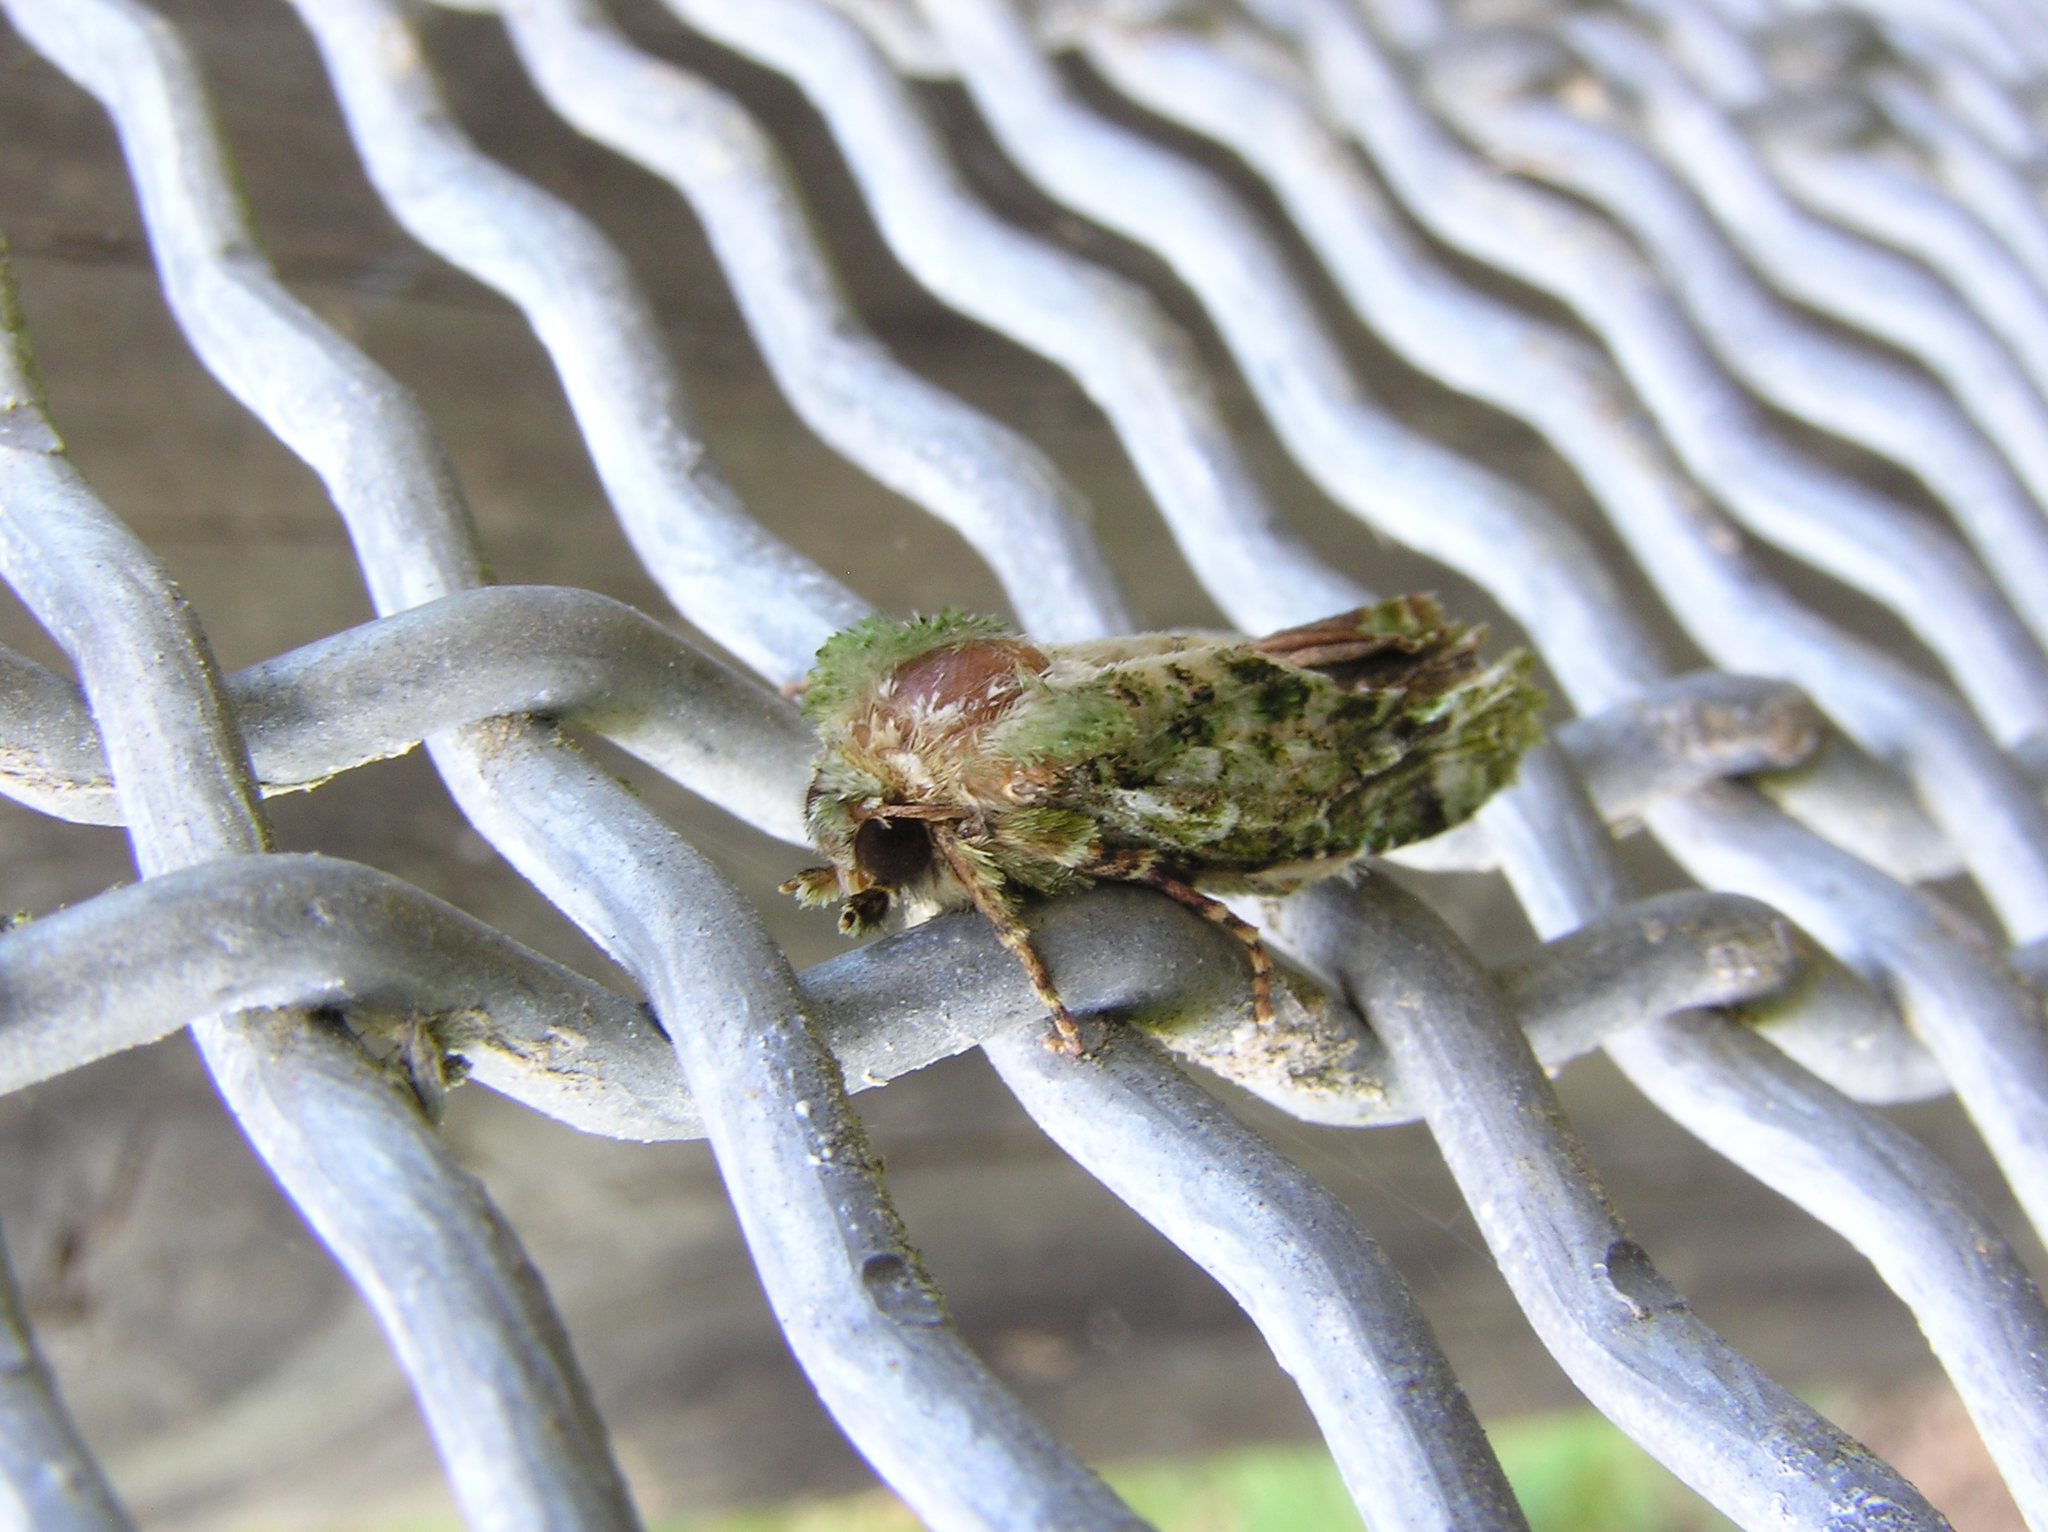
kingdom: Animalia
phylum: Arthropoda
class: Insecta
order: Lepidoptera
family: Noctuidae
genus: Feredayia
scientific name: Feredayia grammosa
